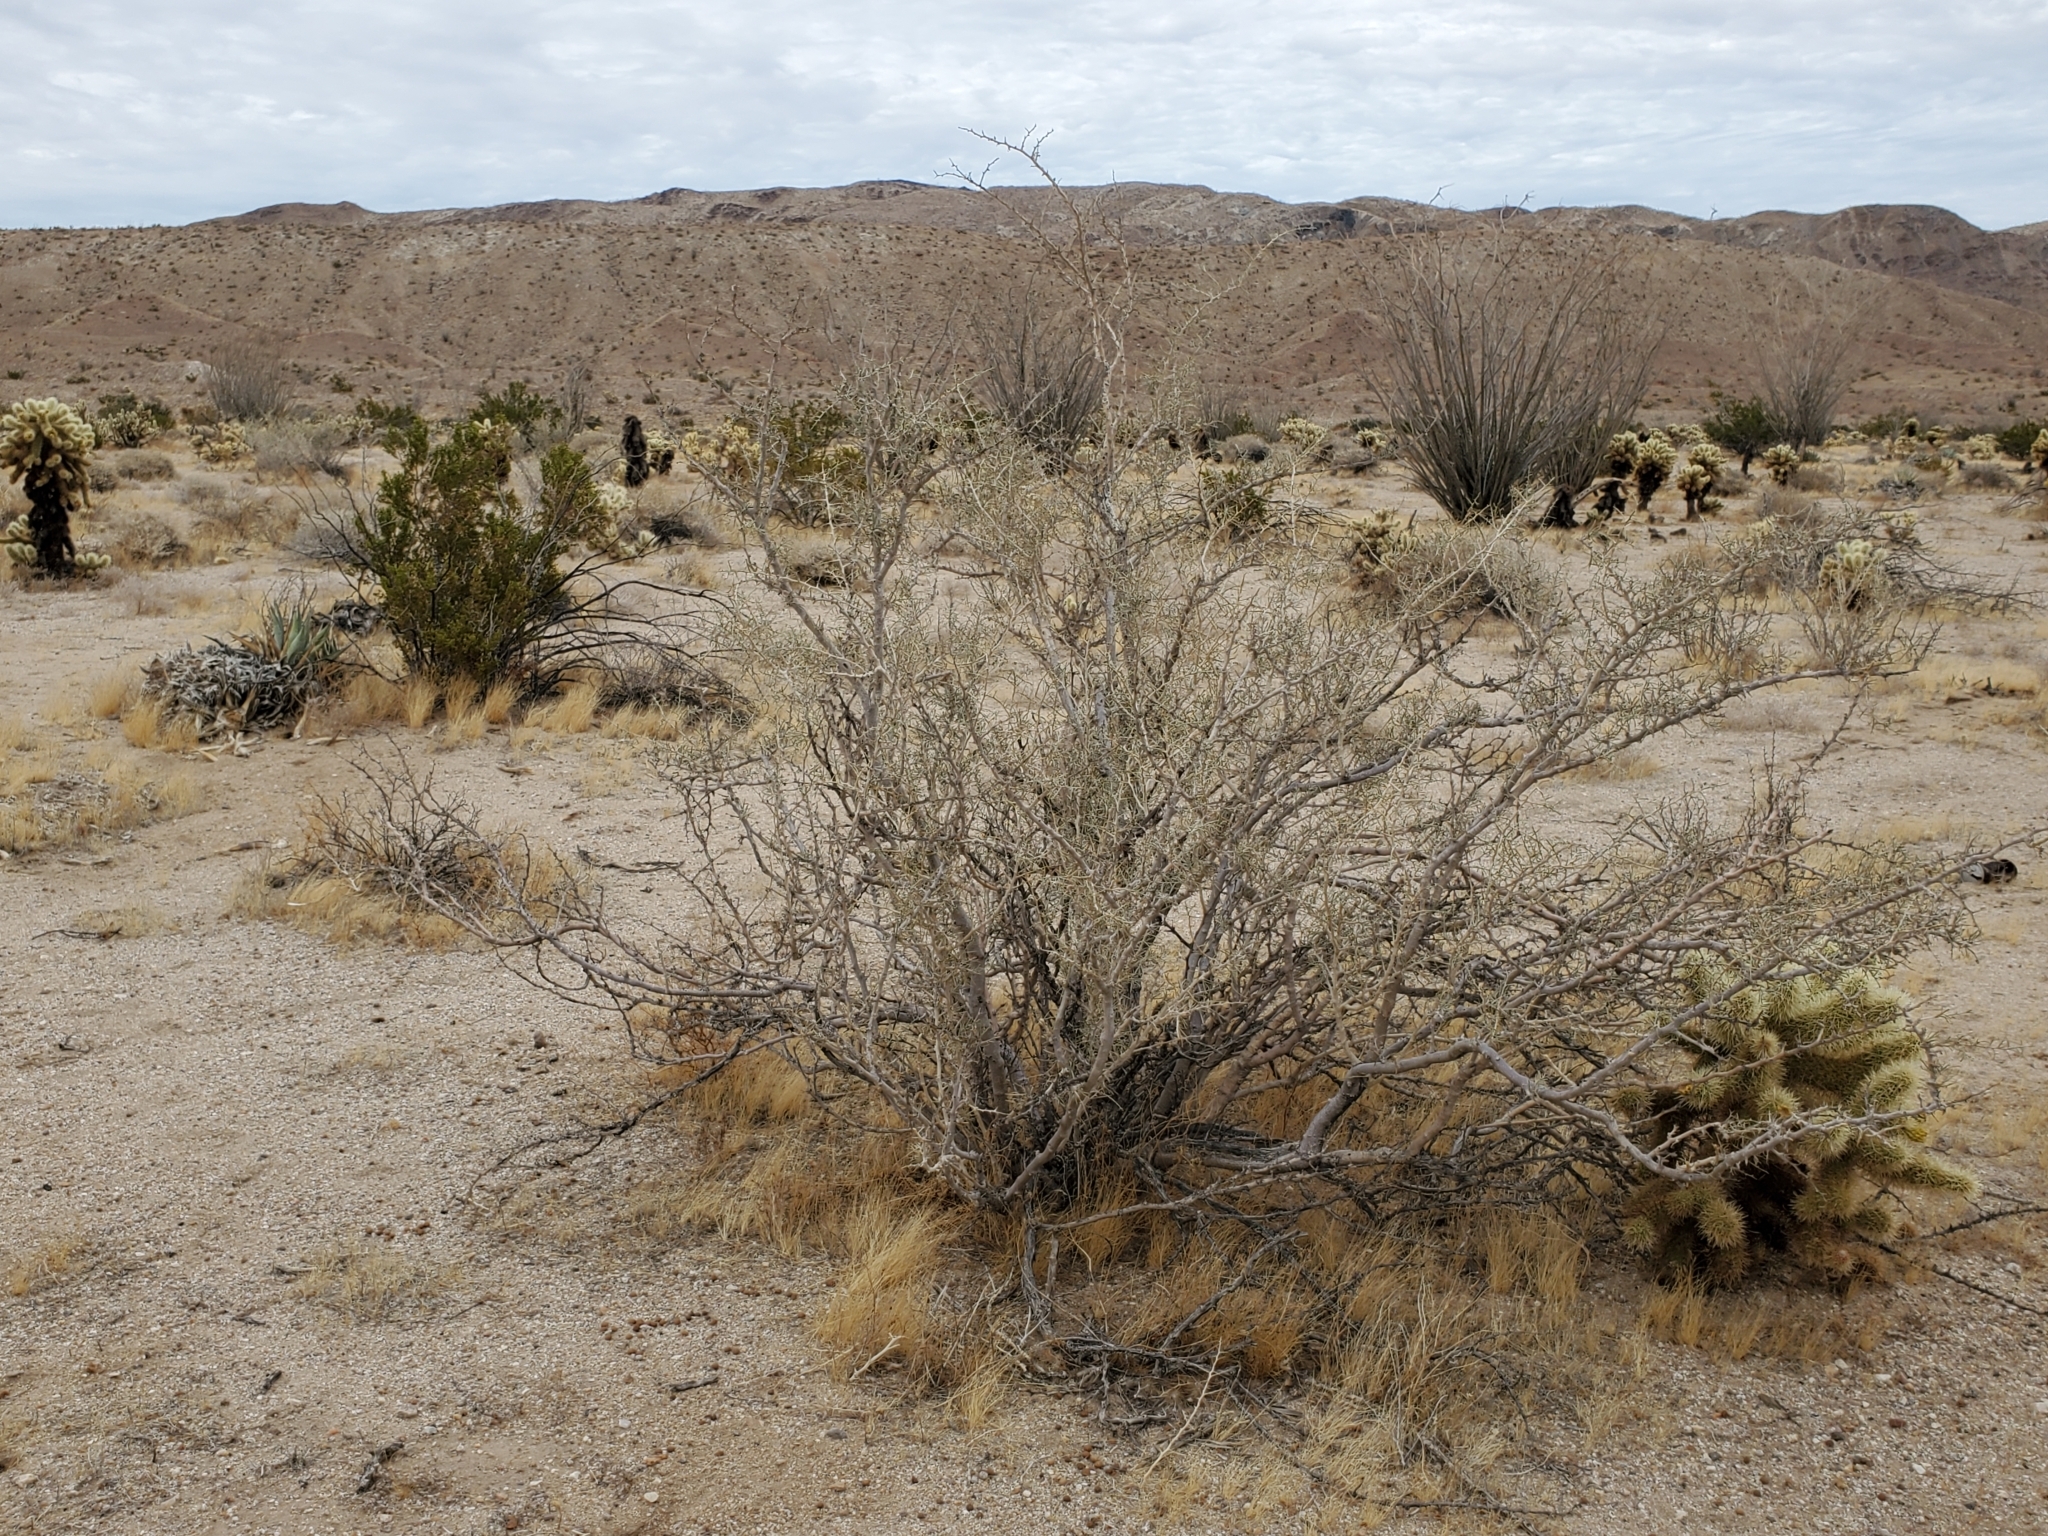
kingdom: Plantae
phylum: Tracheophyta
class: Magnoliopsida
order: Fabales
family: Fabaceae
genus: Psorothamnus
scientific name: Psorothamnus schottii
